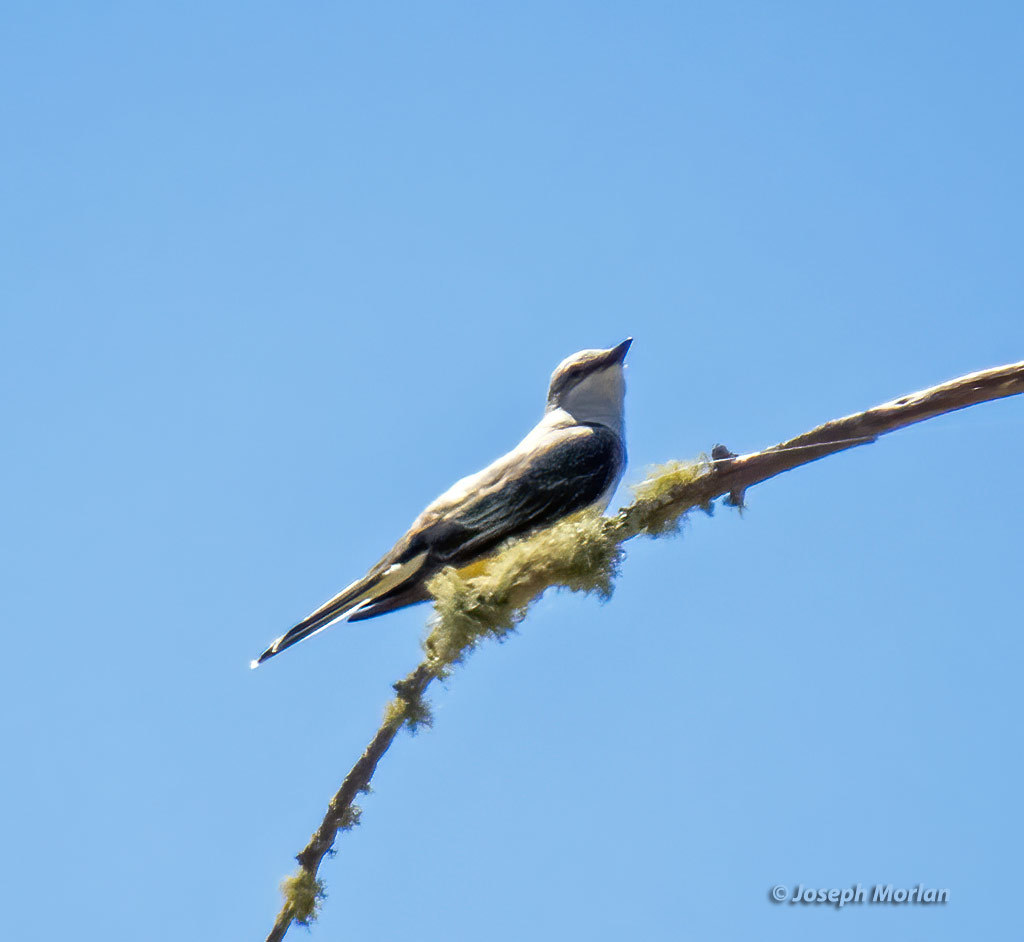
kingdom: Animalia
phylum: Chordata
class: Aves
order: Passeriformes
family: Tyrannidae
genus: Tyrannus
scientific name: Tyrannus verticalis
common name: Western kingbird
